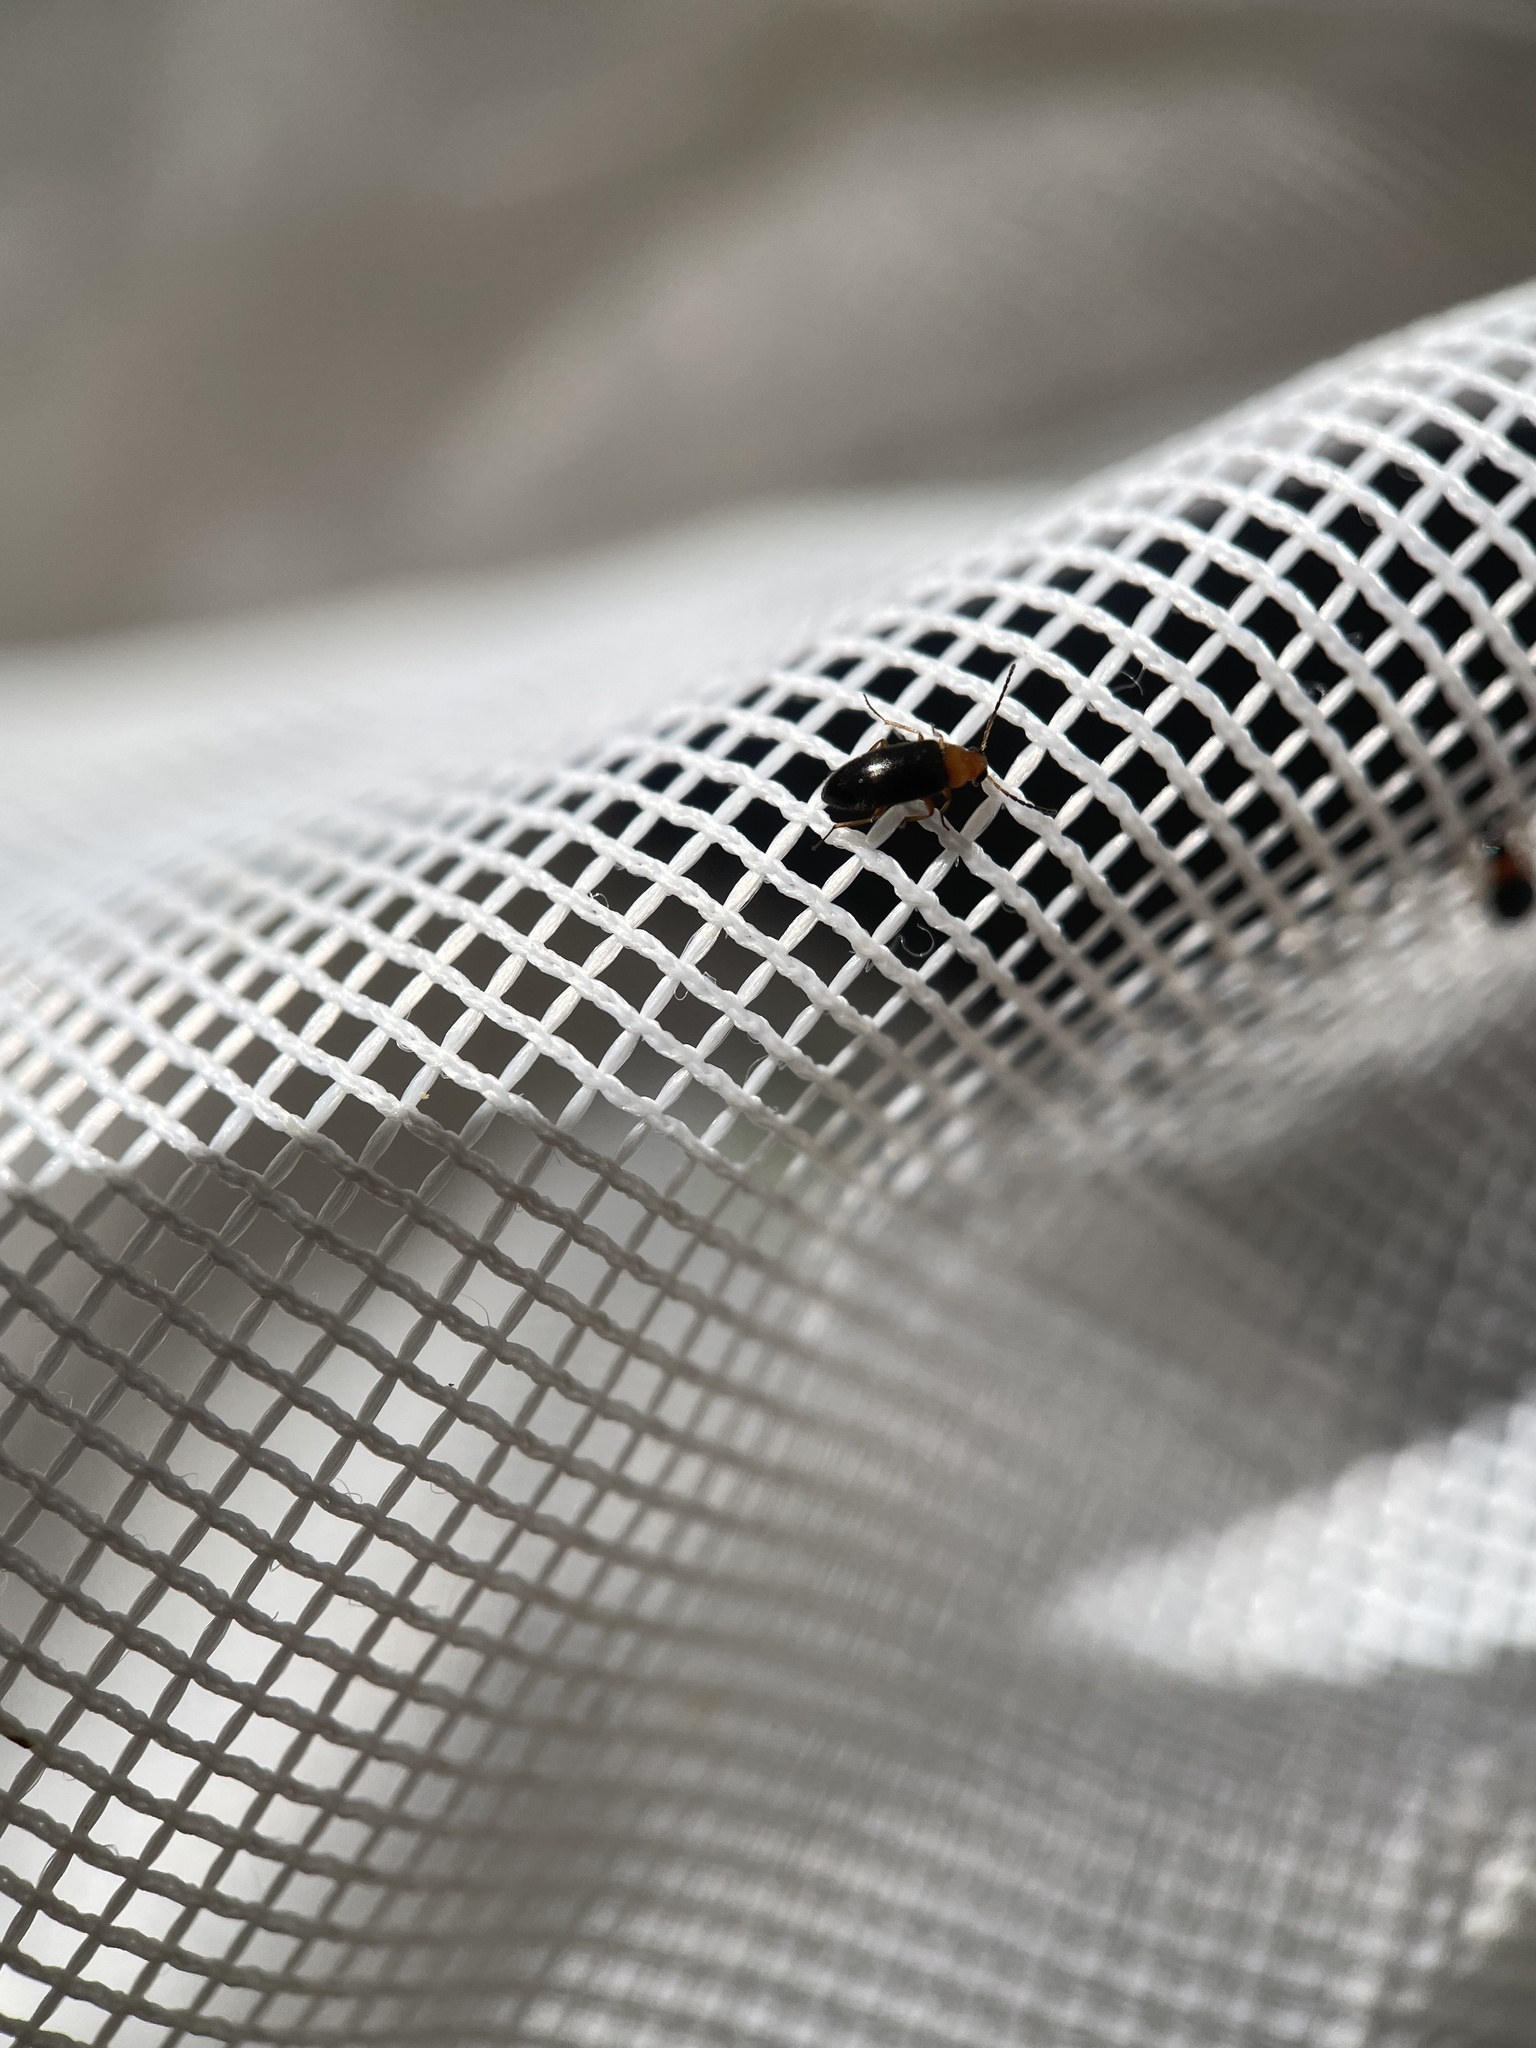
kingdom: Animalia
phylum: Arthropoda
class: Insecta
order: Coleoptera
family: Melandryidae
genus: Symphora
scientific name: Symphora flavicollis
